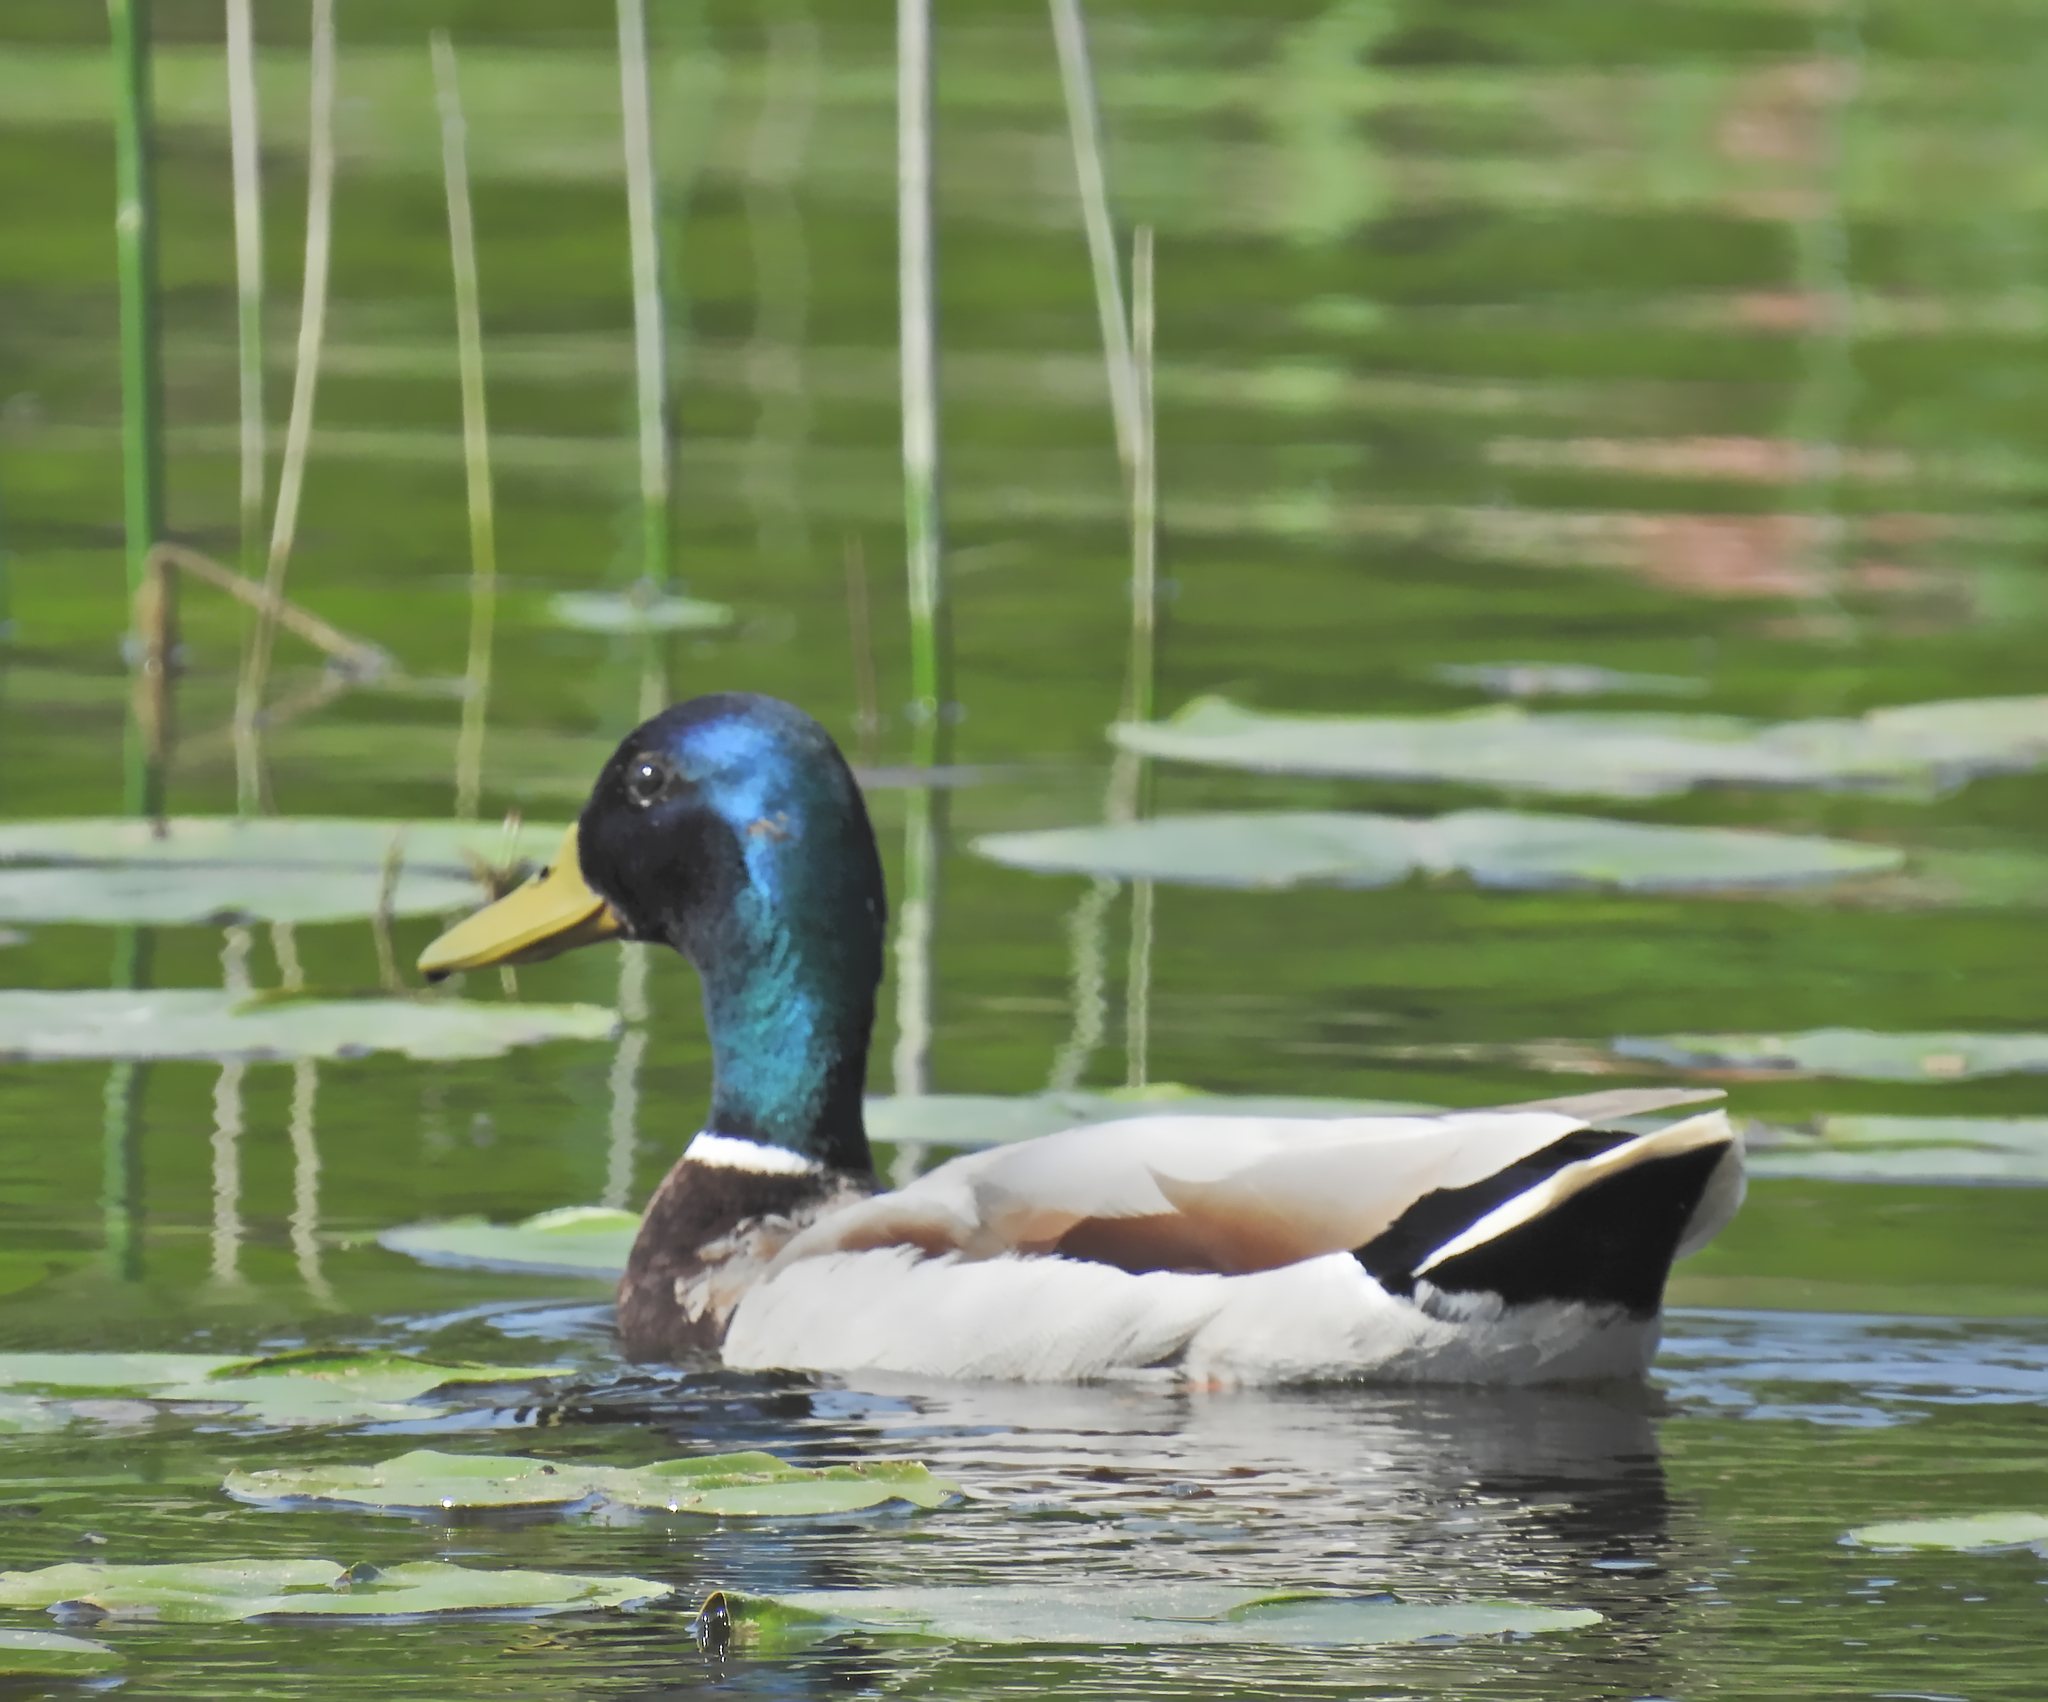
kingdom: Animalia
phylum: Chordata
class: Aves
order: Anseriformes
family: Anatidae
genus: Anas
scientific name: Anas platyrhynchos
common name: Mallard
